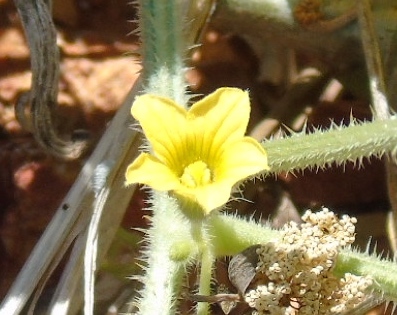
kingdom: Plantae
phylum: Tracheophyta
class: Magnoliopsida
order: Cucurbitales
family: Cucurbitaceae
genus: Cucumis
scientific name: Cucumis dipsaceus
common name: Hedgehog gourd
